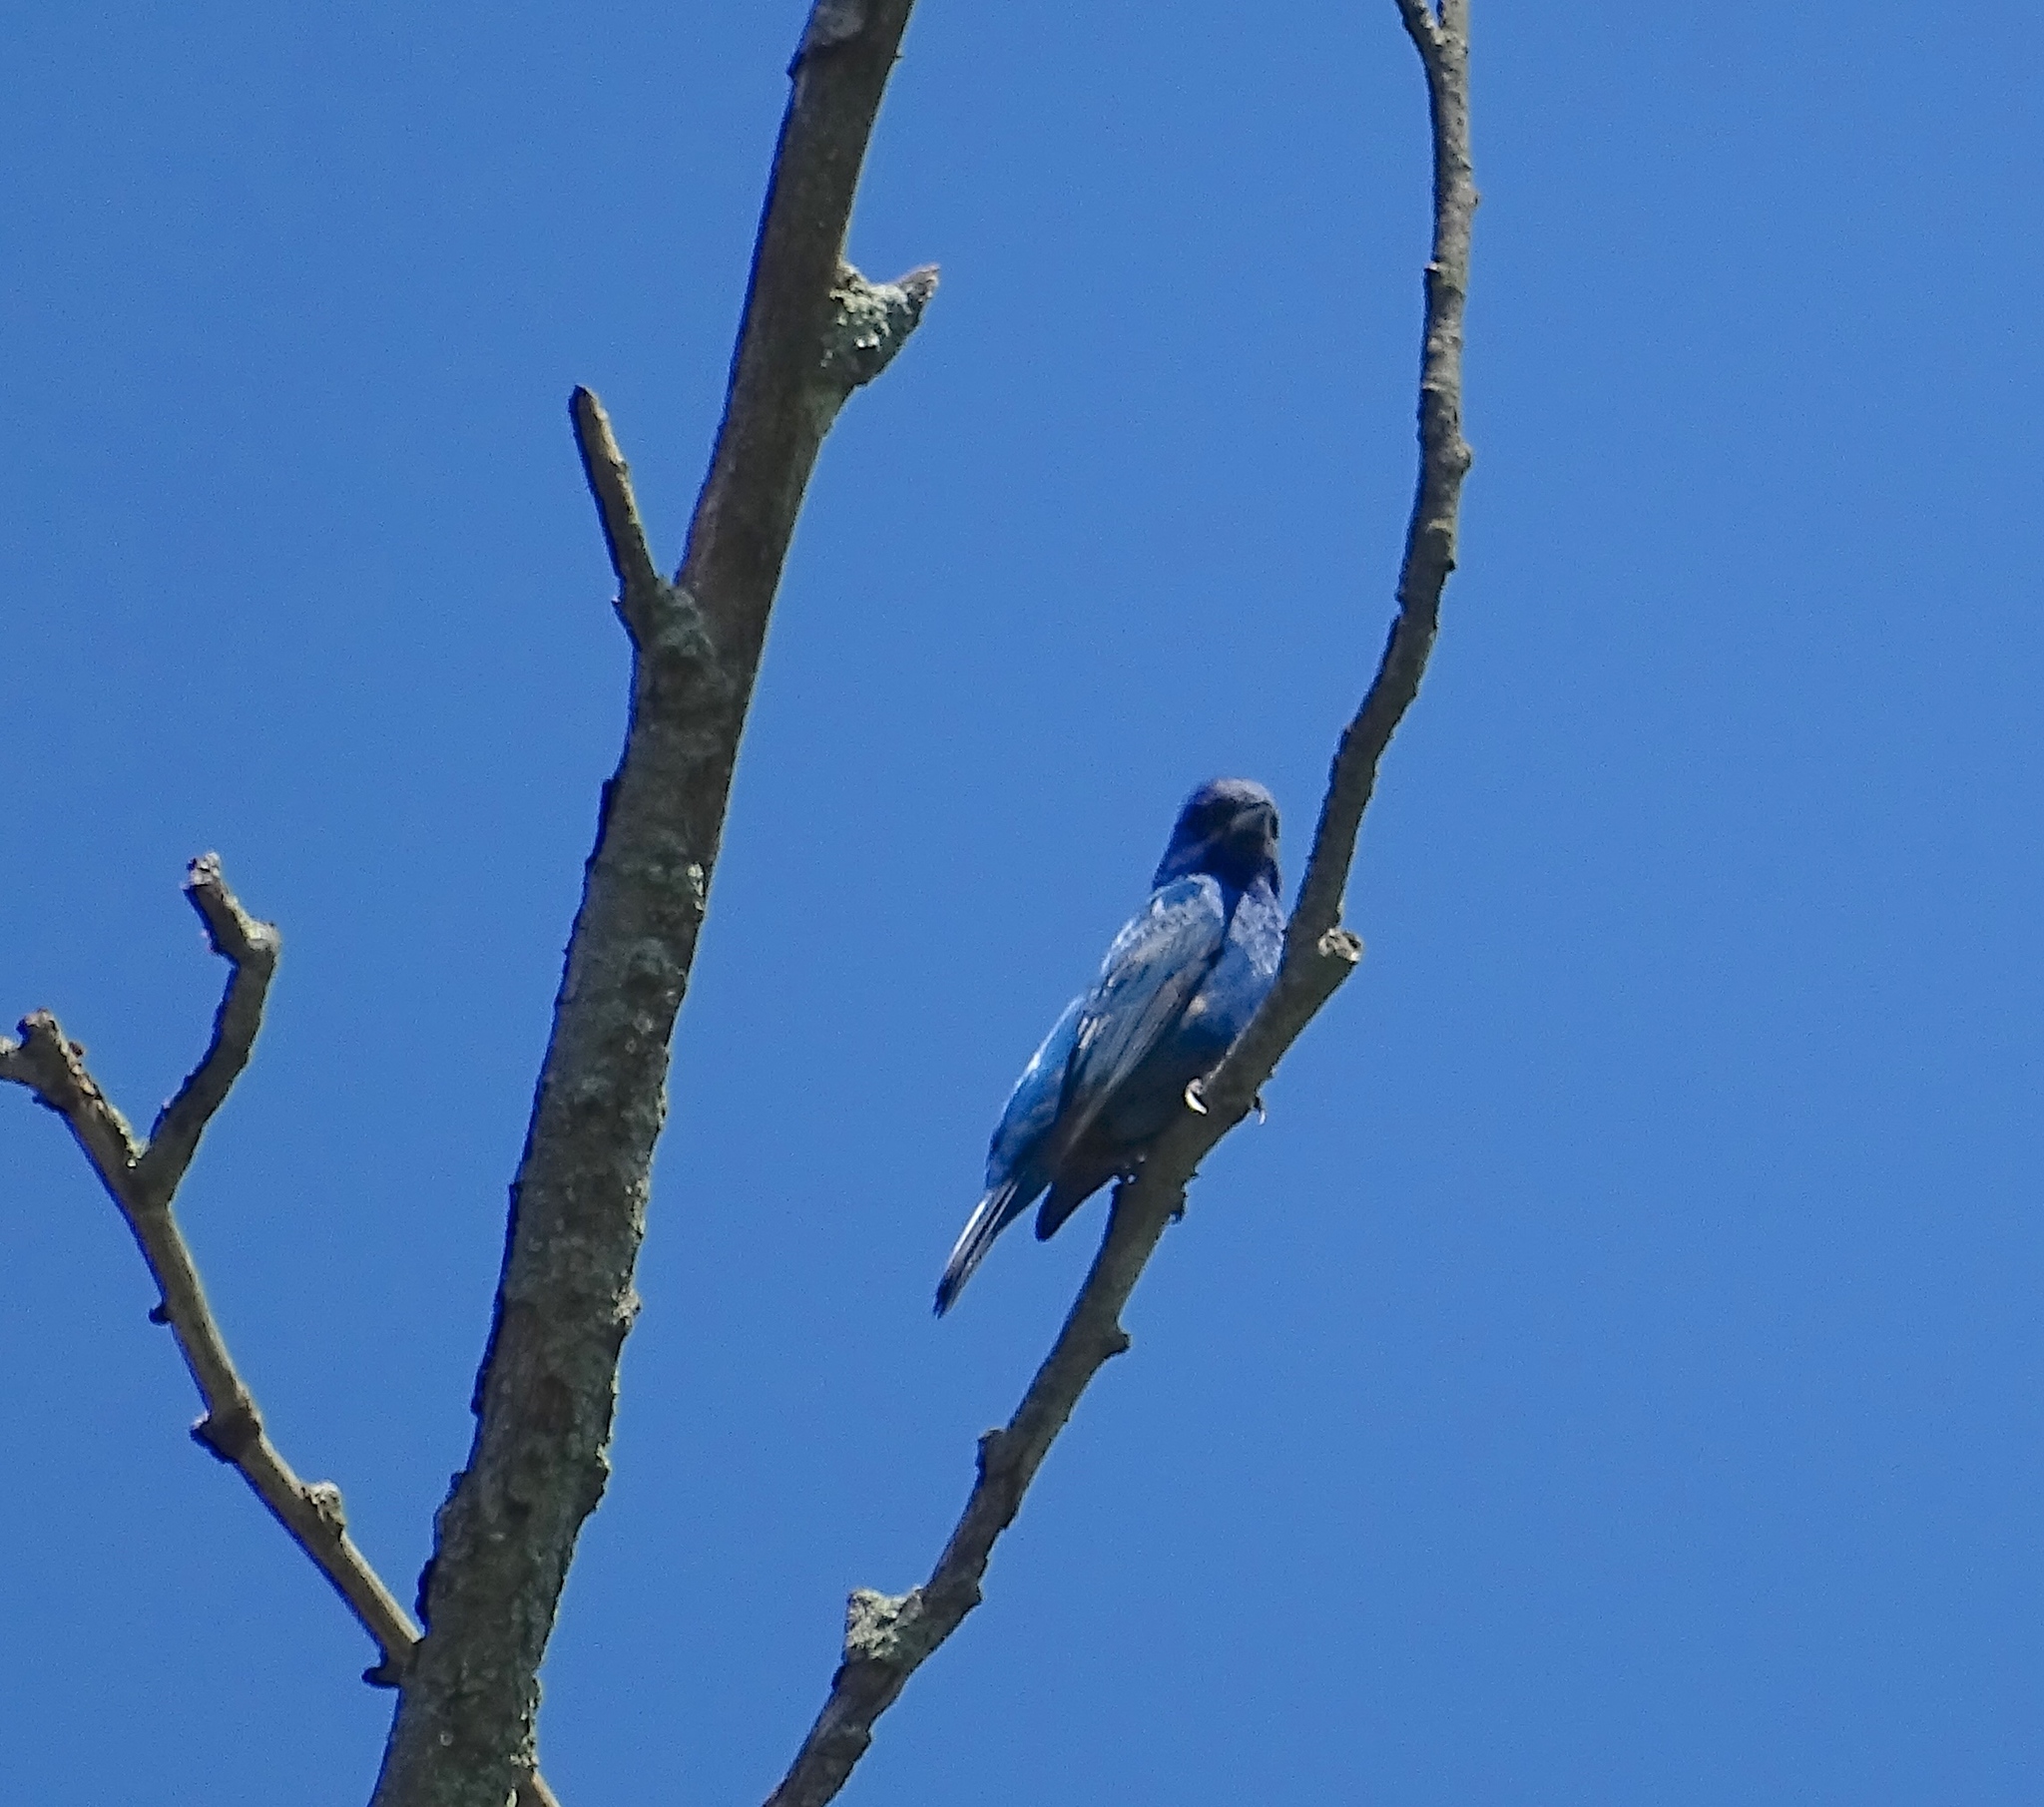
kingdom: Animalia
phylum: Chordata
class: Aves
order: Passeriformes
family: Cardinalidae
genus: Passerina
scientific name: Passerina cyanea
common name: Indigo bunting
